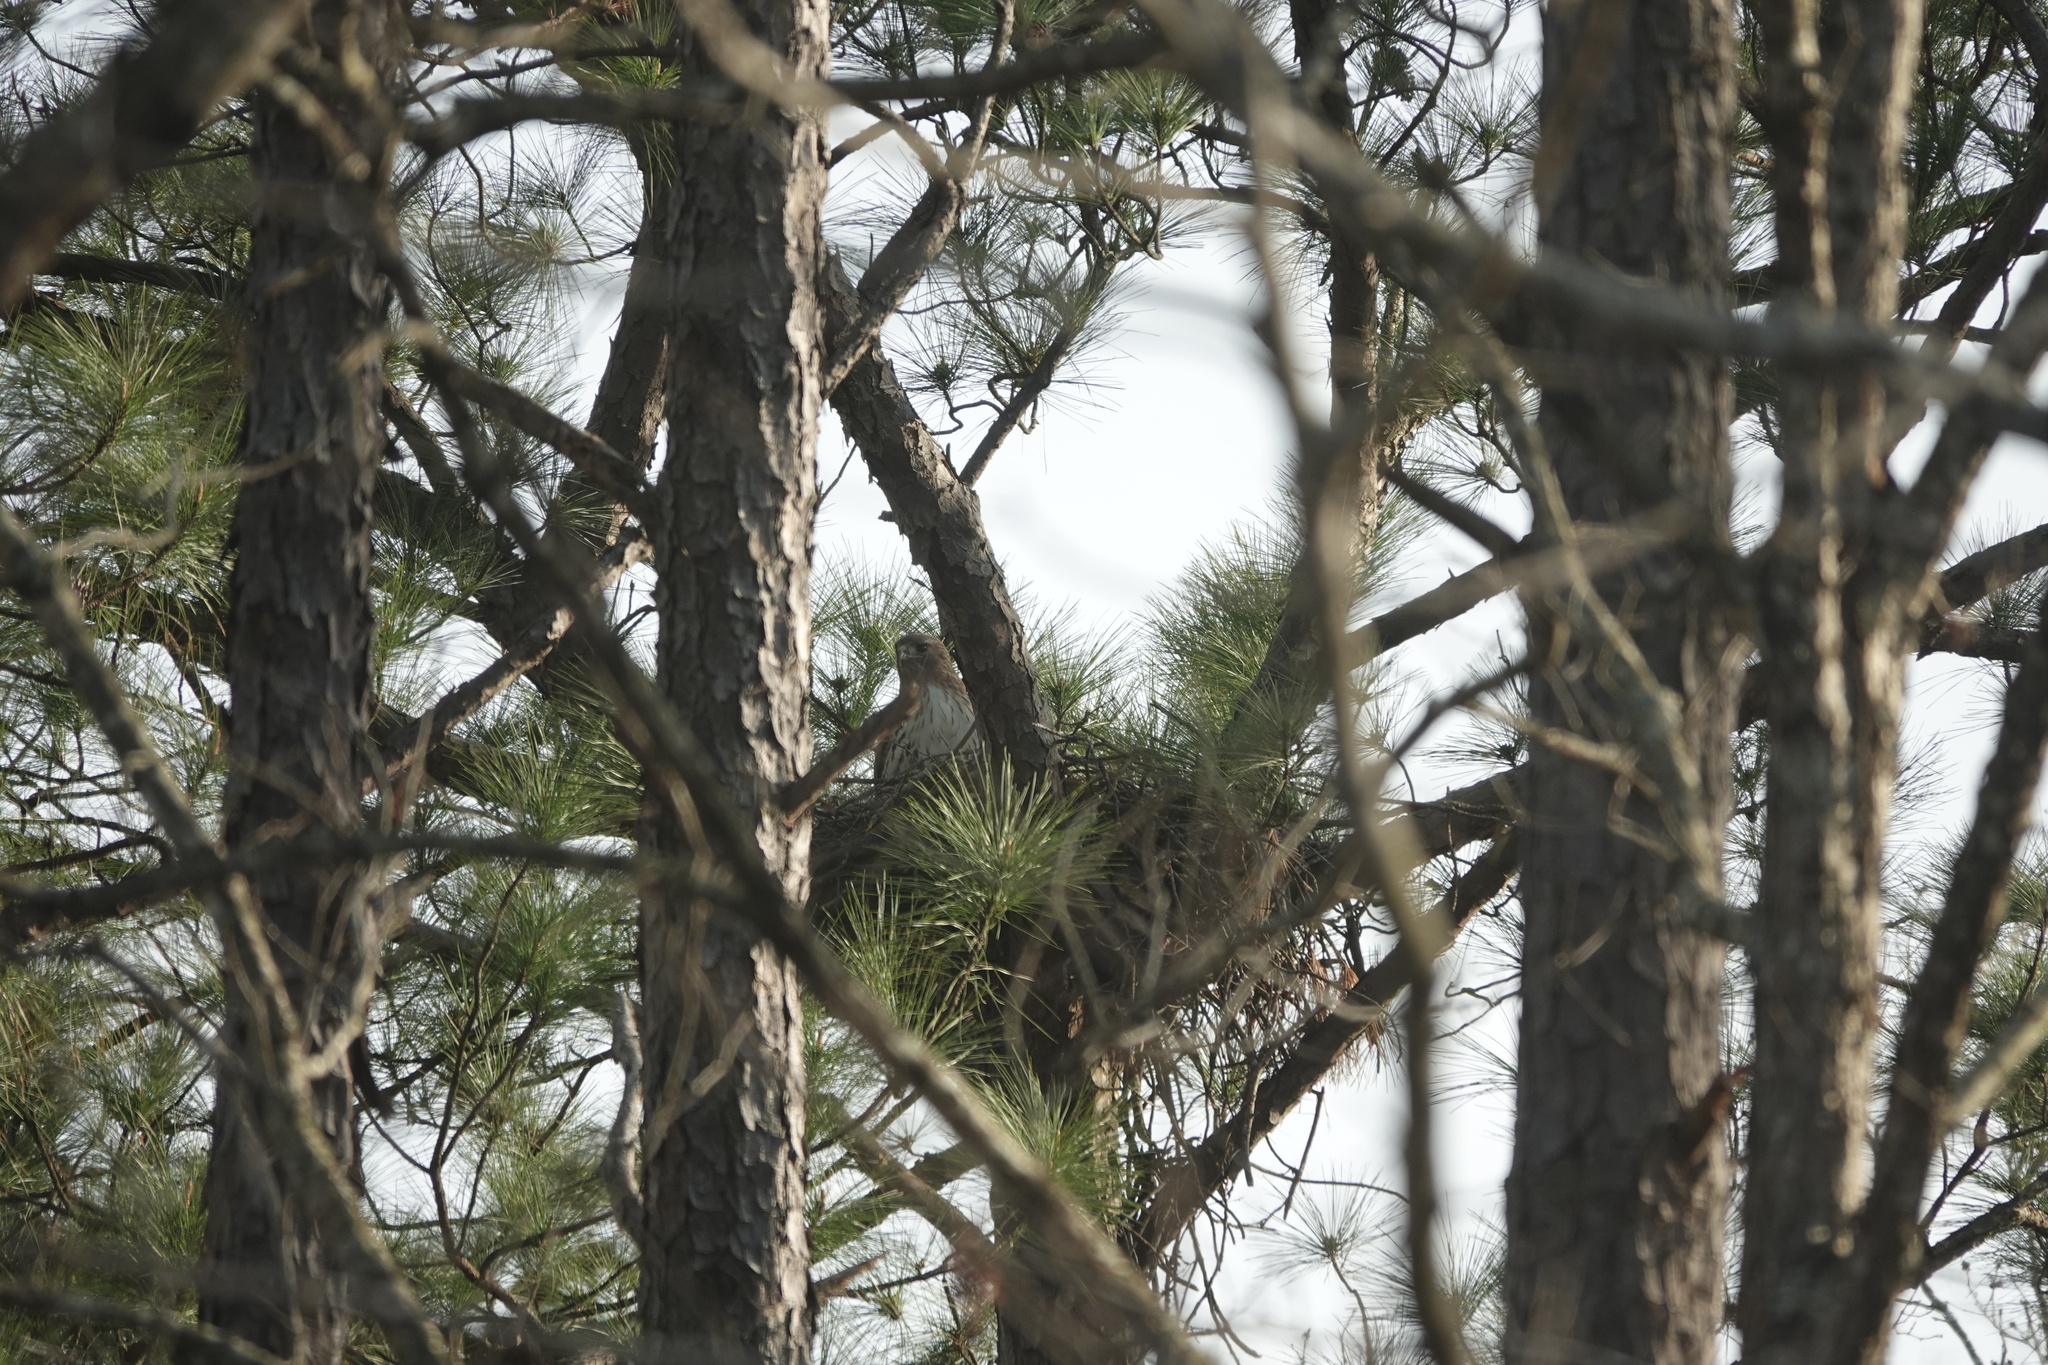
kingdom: Animalia
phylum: Chordata
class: Aves
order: Accipitriformes
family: Accipitridae
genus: Buteo
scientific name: Buteo jamaicensis
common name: Red-tailed hawk
